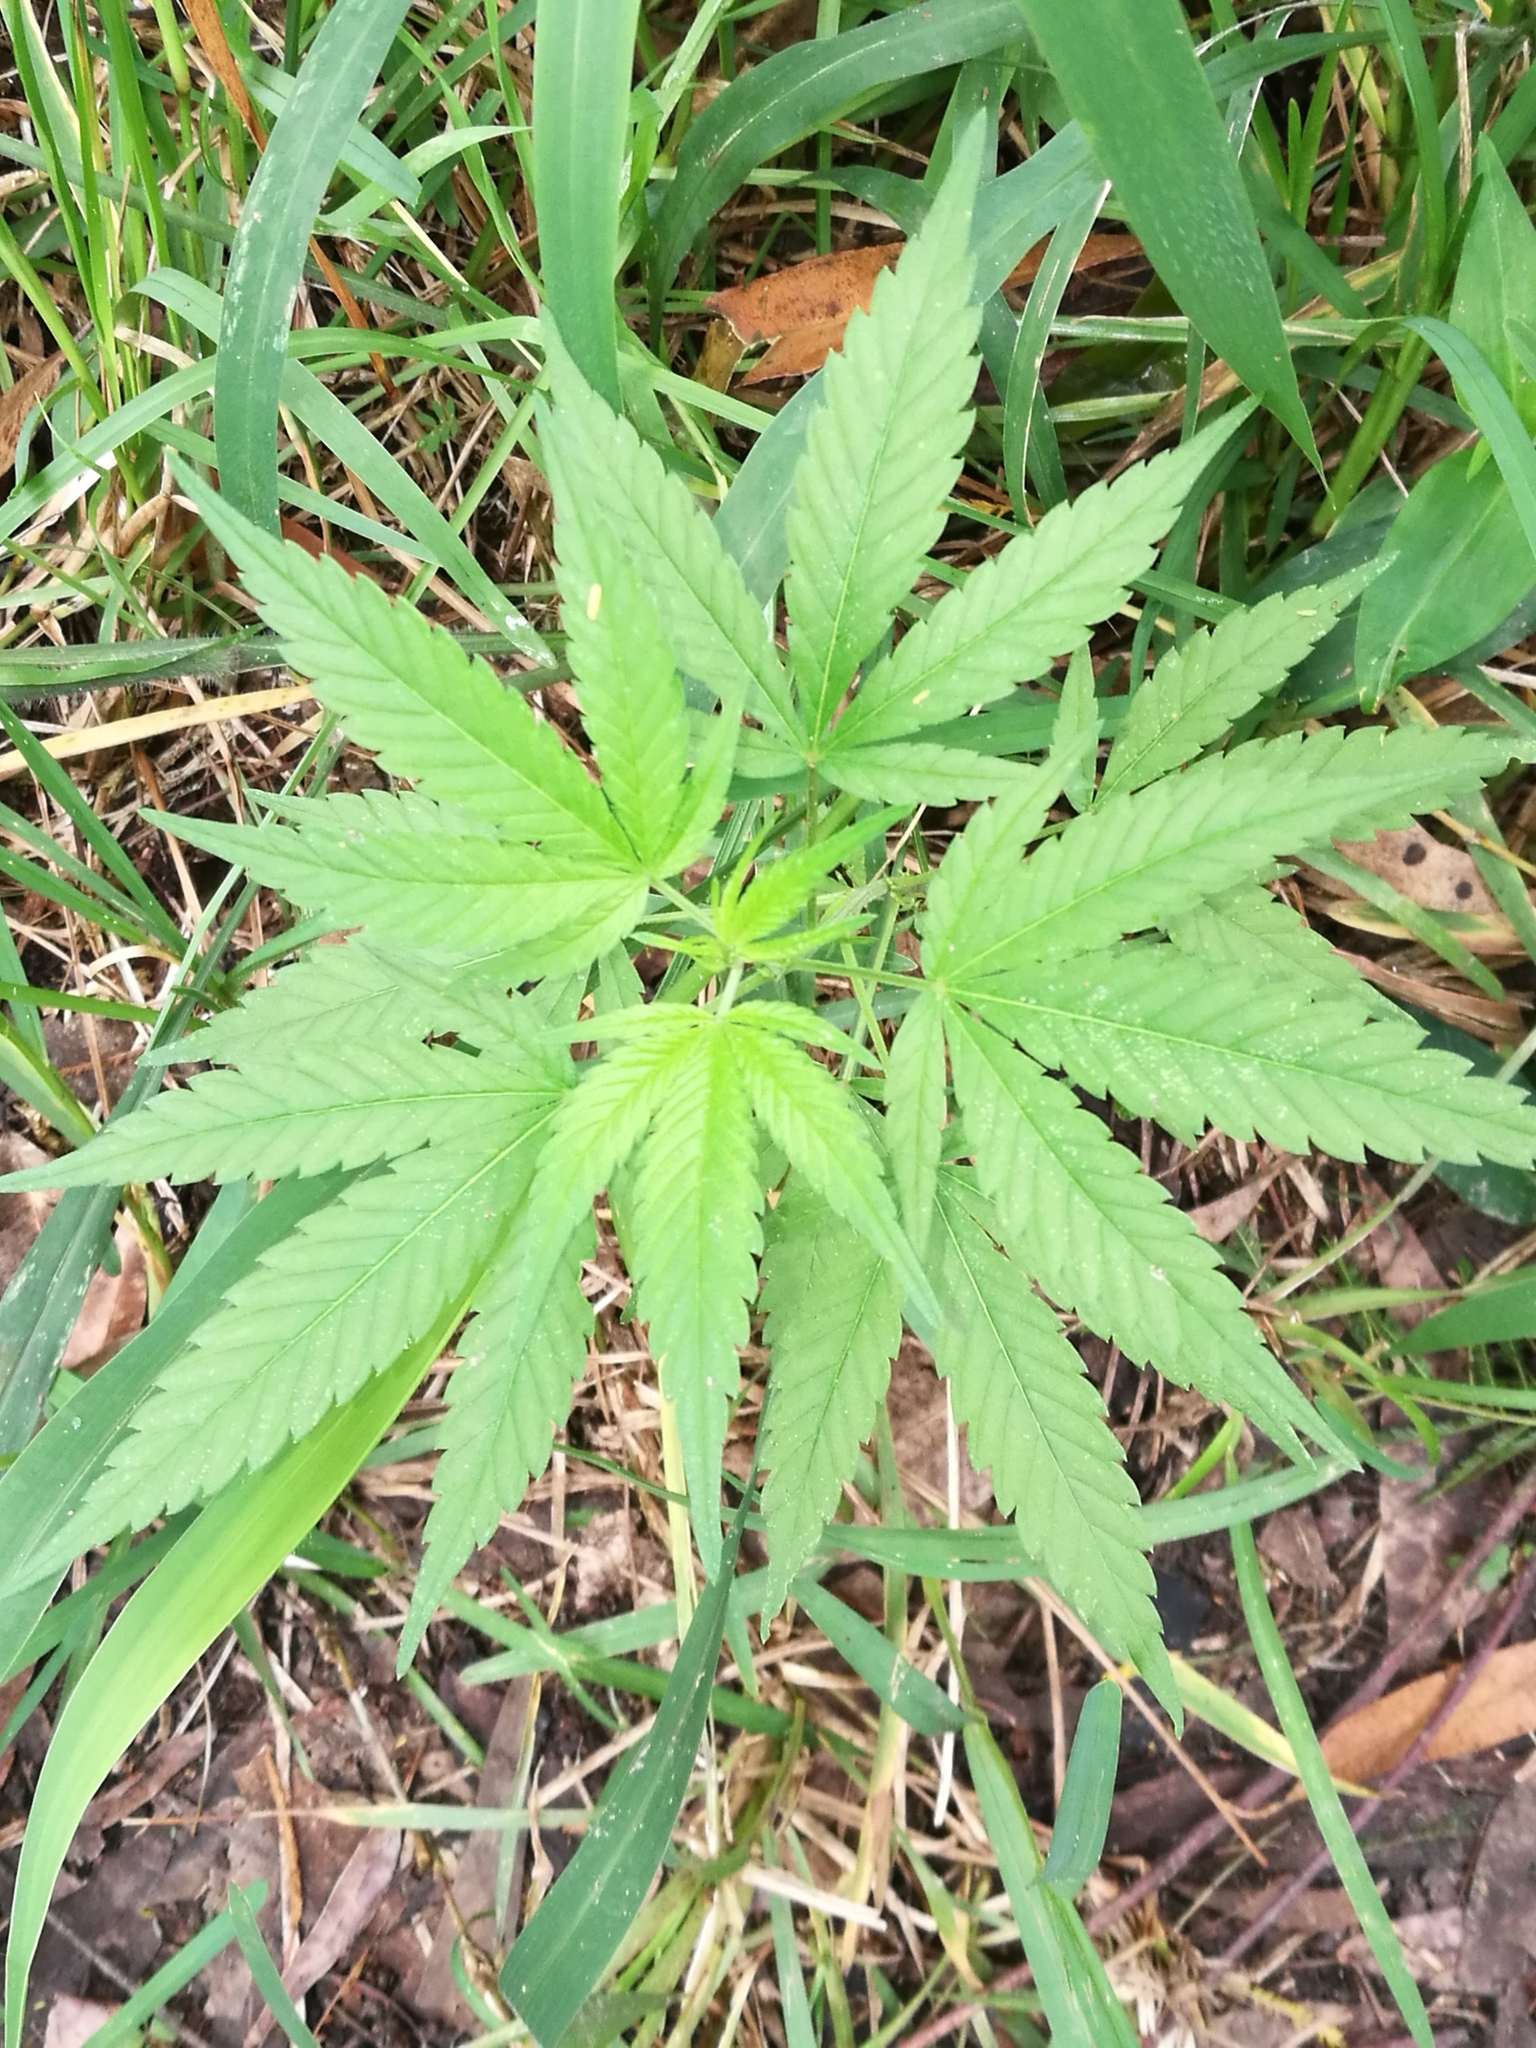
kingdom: Plantae
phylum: Tracheophyta
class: Magnoliopsida
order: Rosales
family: Cannabaceae
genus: Cannabis
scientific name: Cannabis sativa
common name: Hemp
